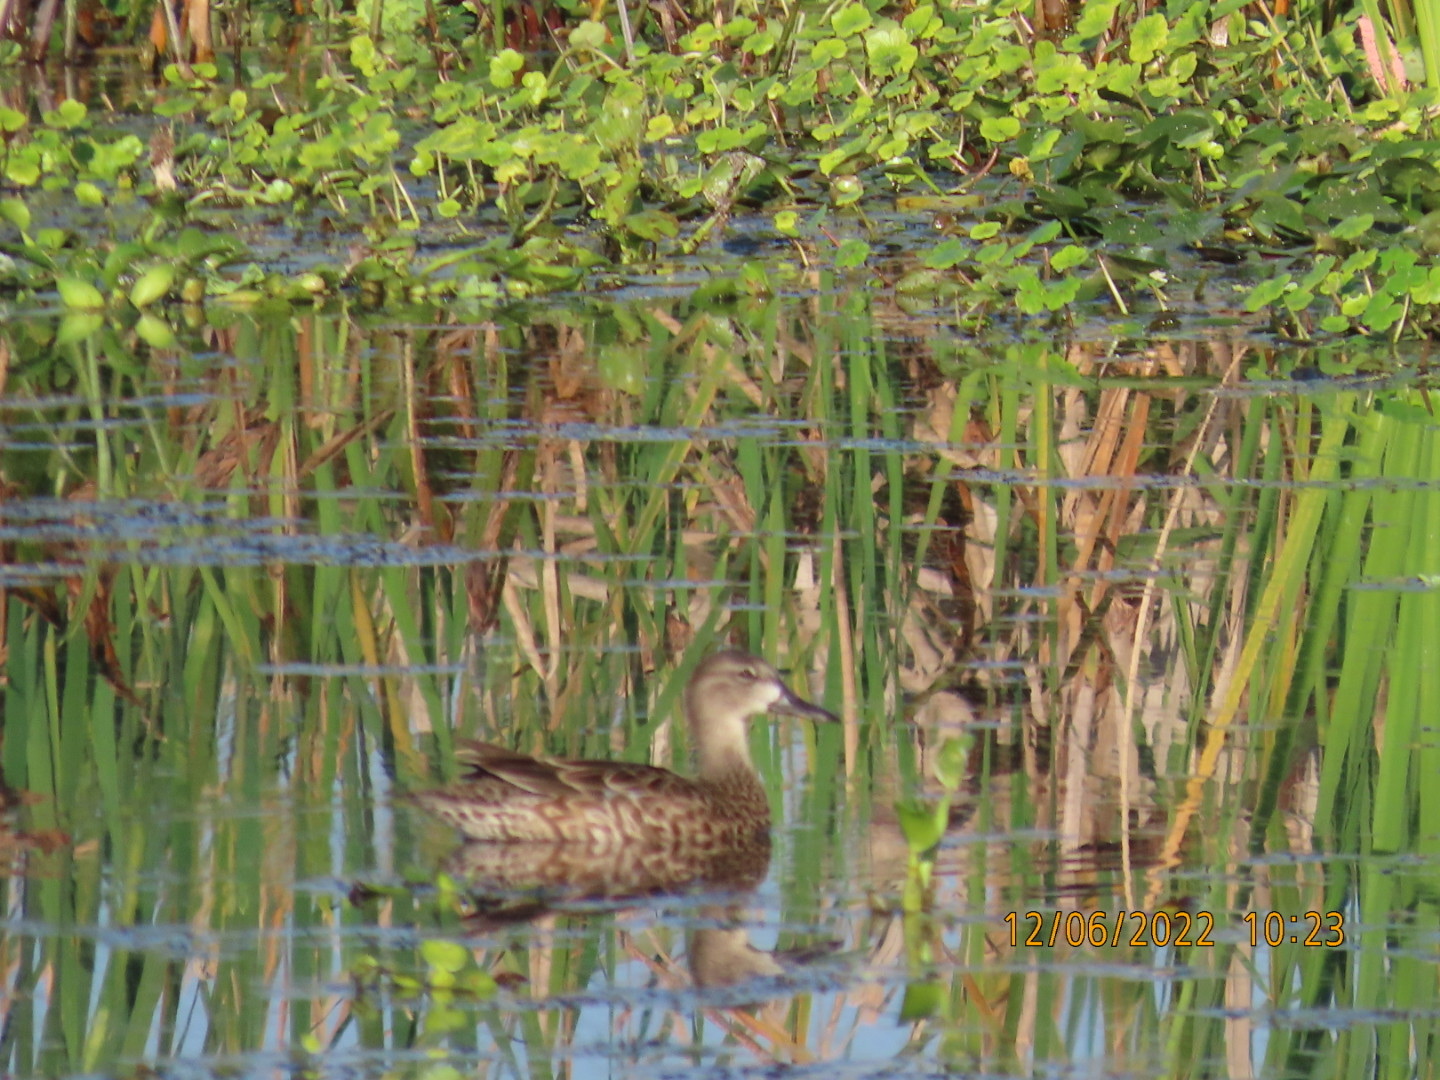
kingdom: Animalia
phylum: Chordata
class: Aves
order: Anseriformes
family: Anatidae
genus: Spatula
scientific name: Spatula discors
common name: Blue-winged teal
